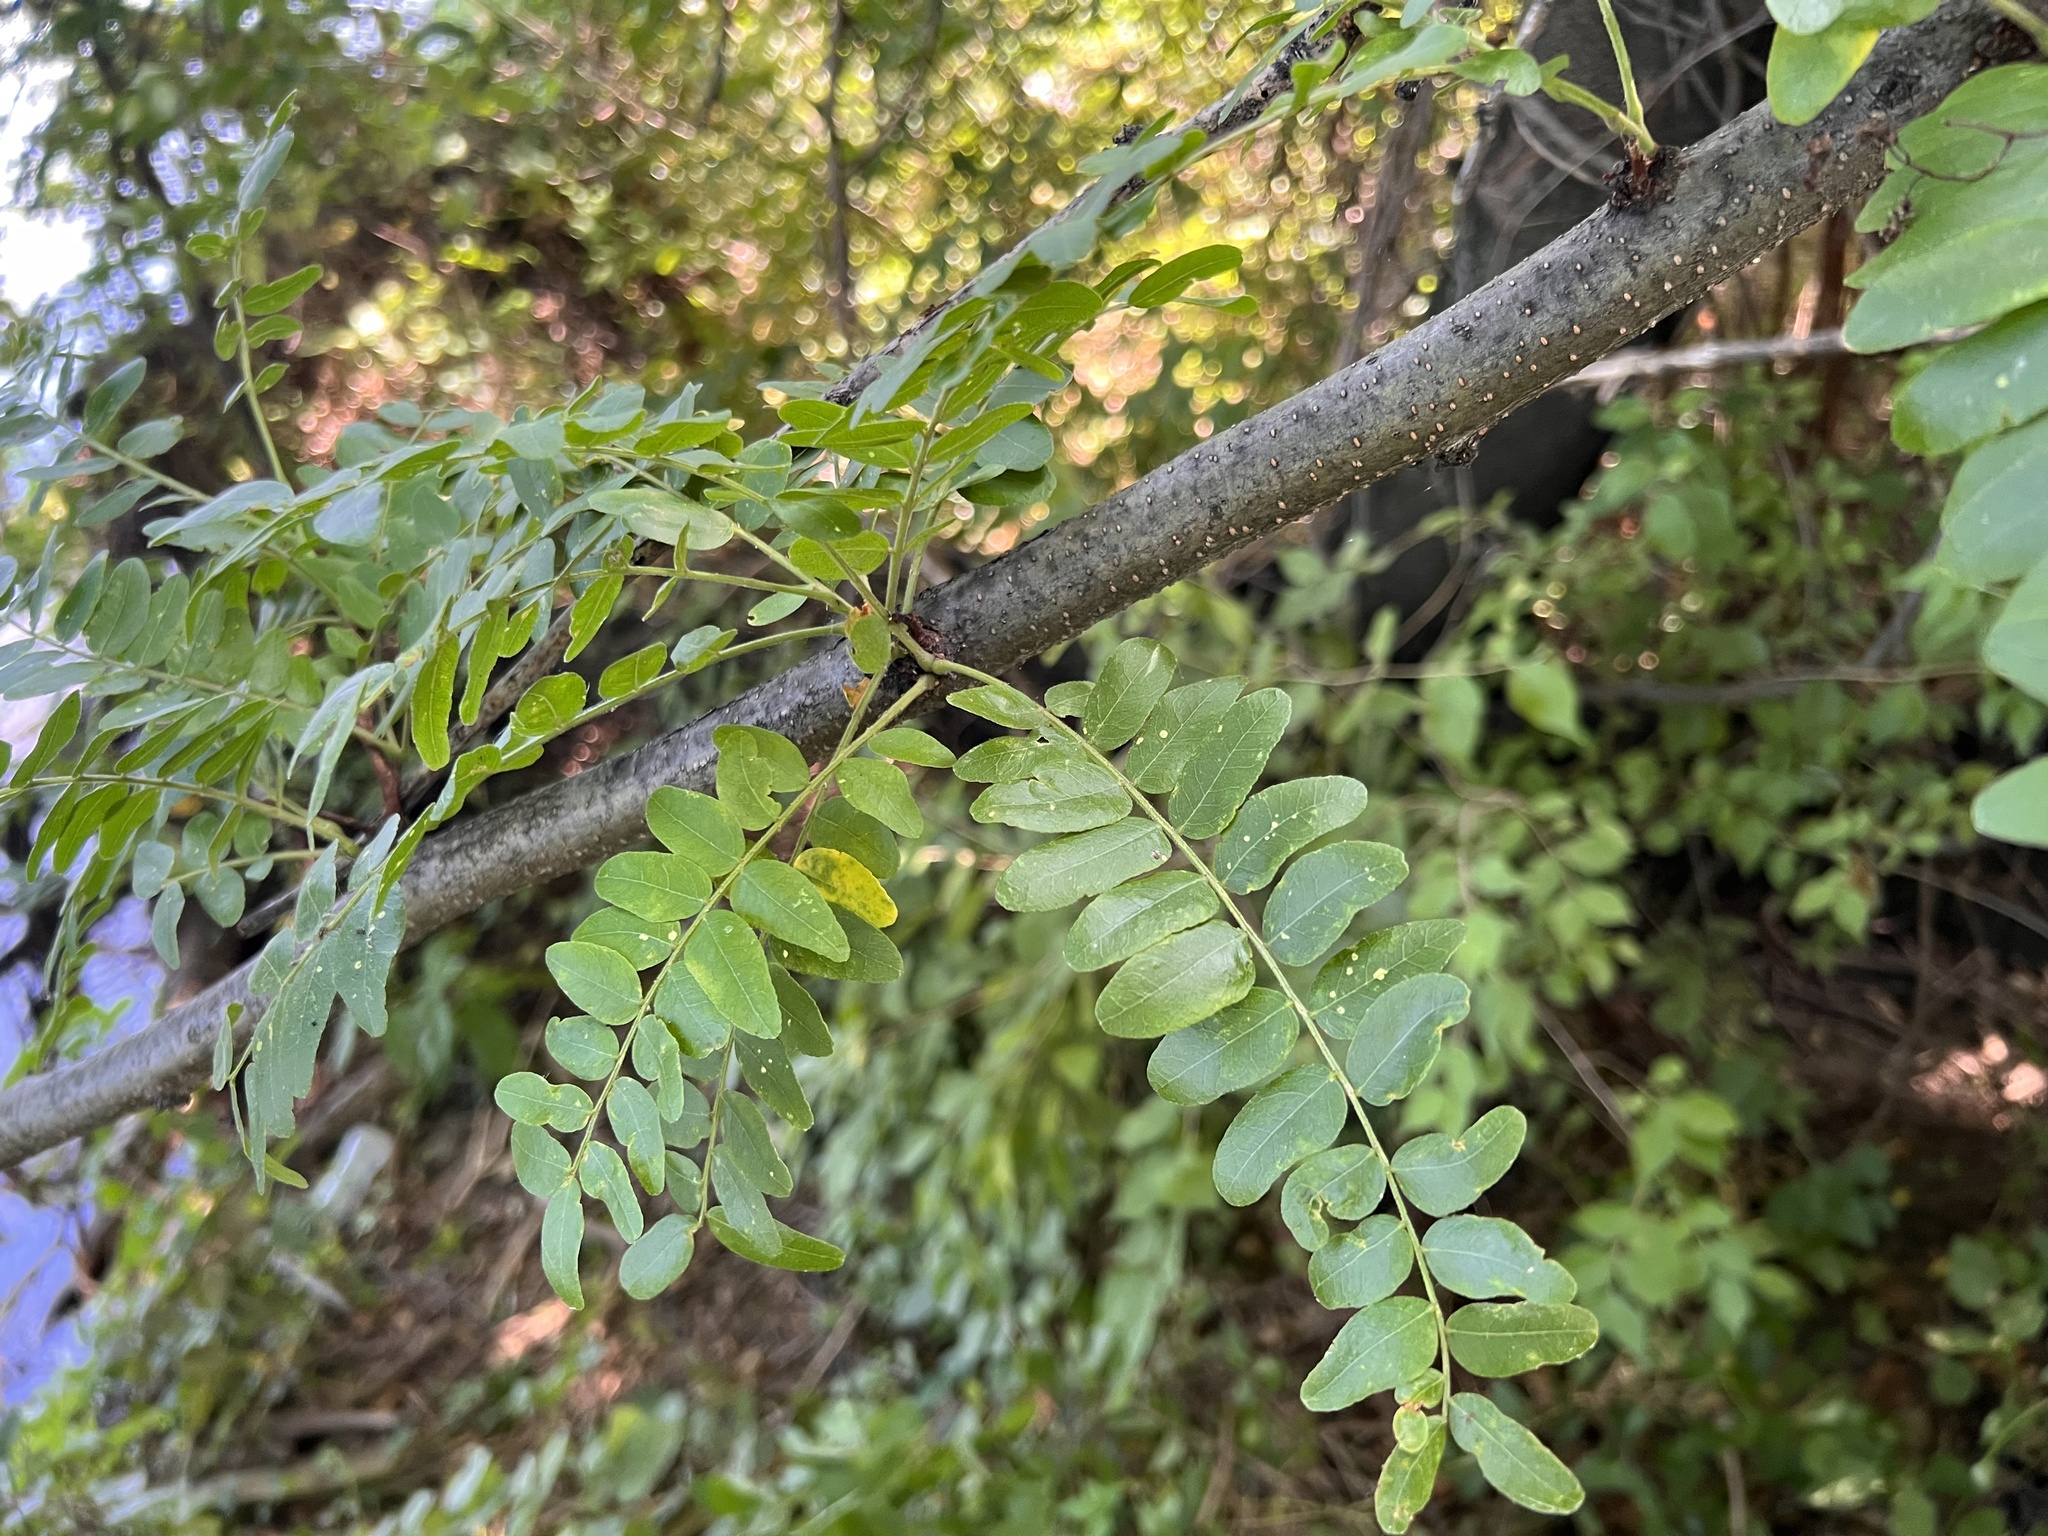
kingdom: Plantae
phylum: Tracheophyta
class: Magnoliopsida
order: Fabales
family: Fabaceae
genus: Gleditsia
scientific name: Gleditsia triacanthos
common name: Common honeylocust
